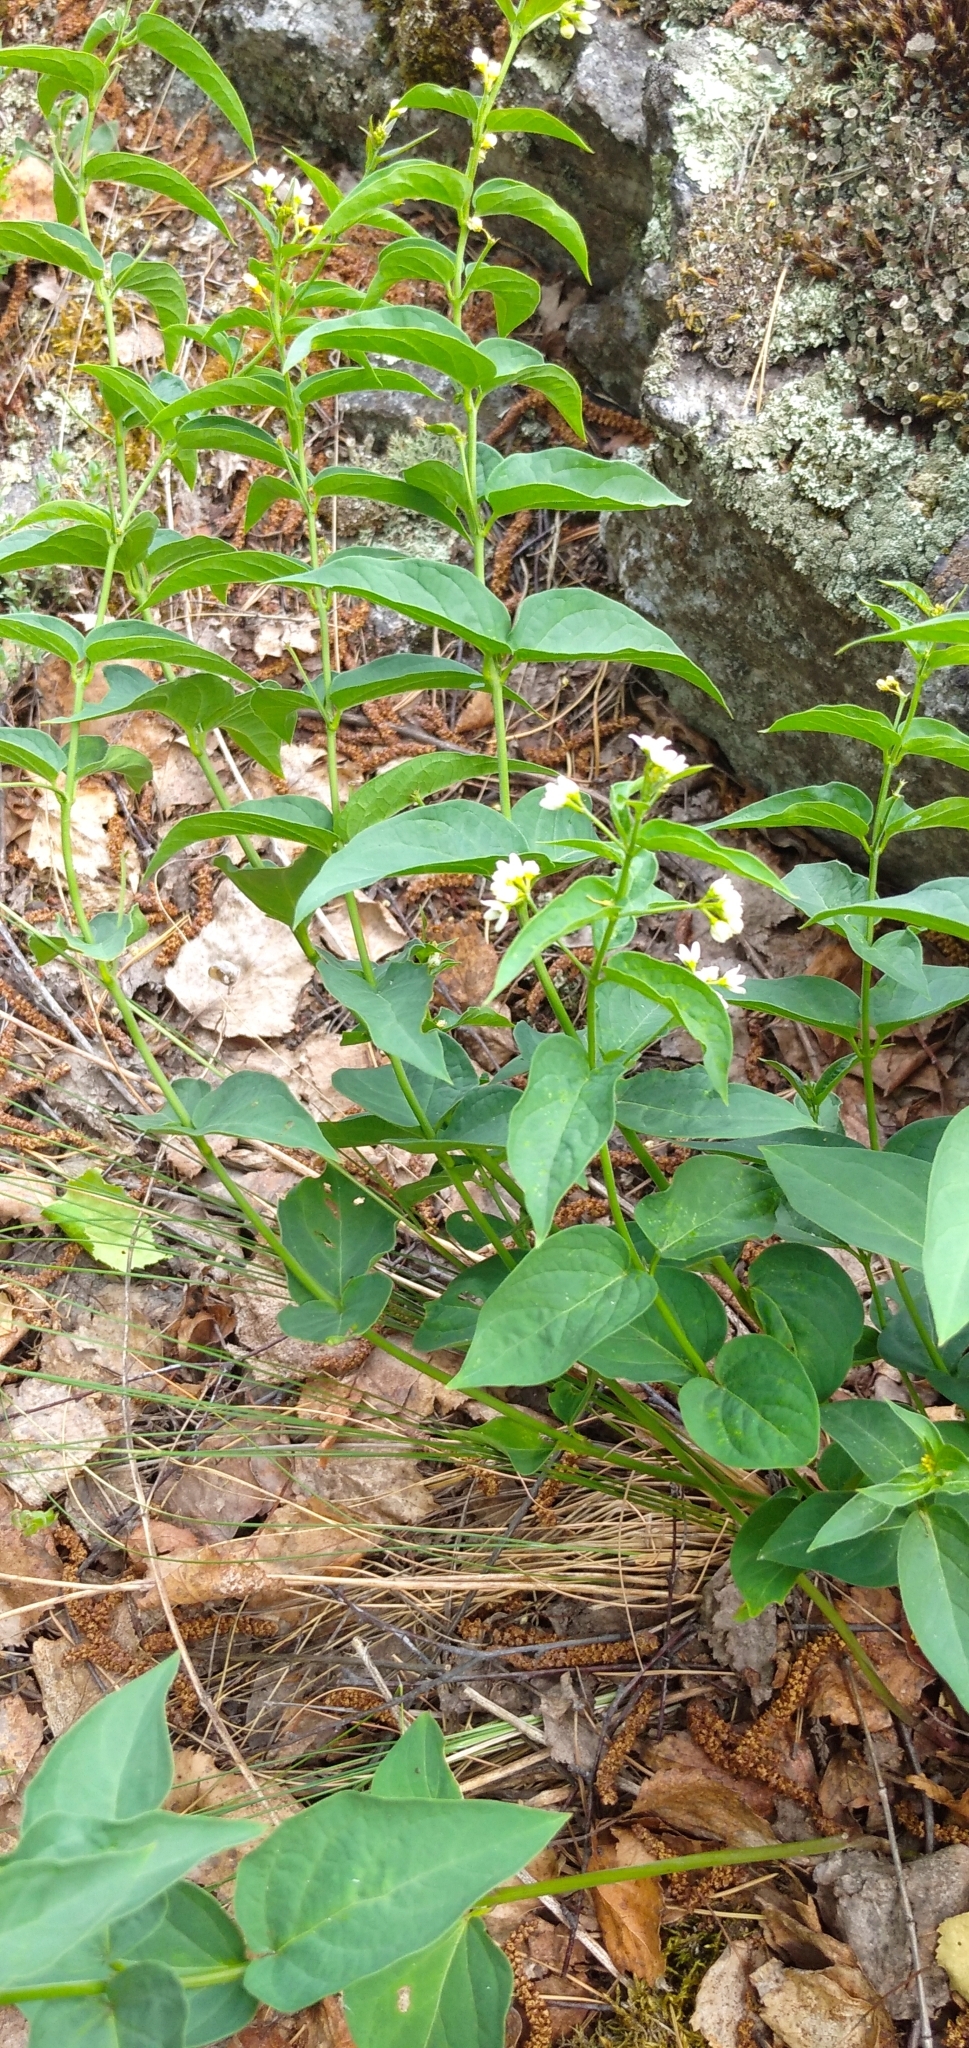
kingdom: Plantae
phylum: Tracheophyta
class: Magnoliopsida
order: Gentianales
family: Apocynaceae
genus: Vincetoxicum
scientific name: Vincetoxicum hirundinaria
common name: White swallowwort
